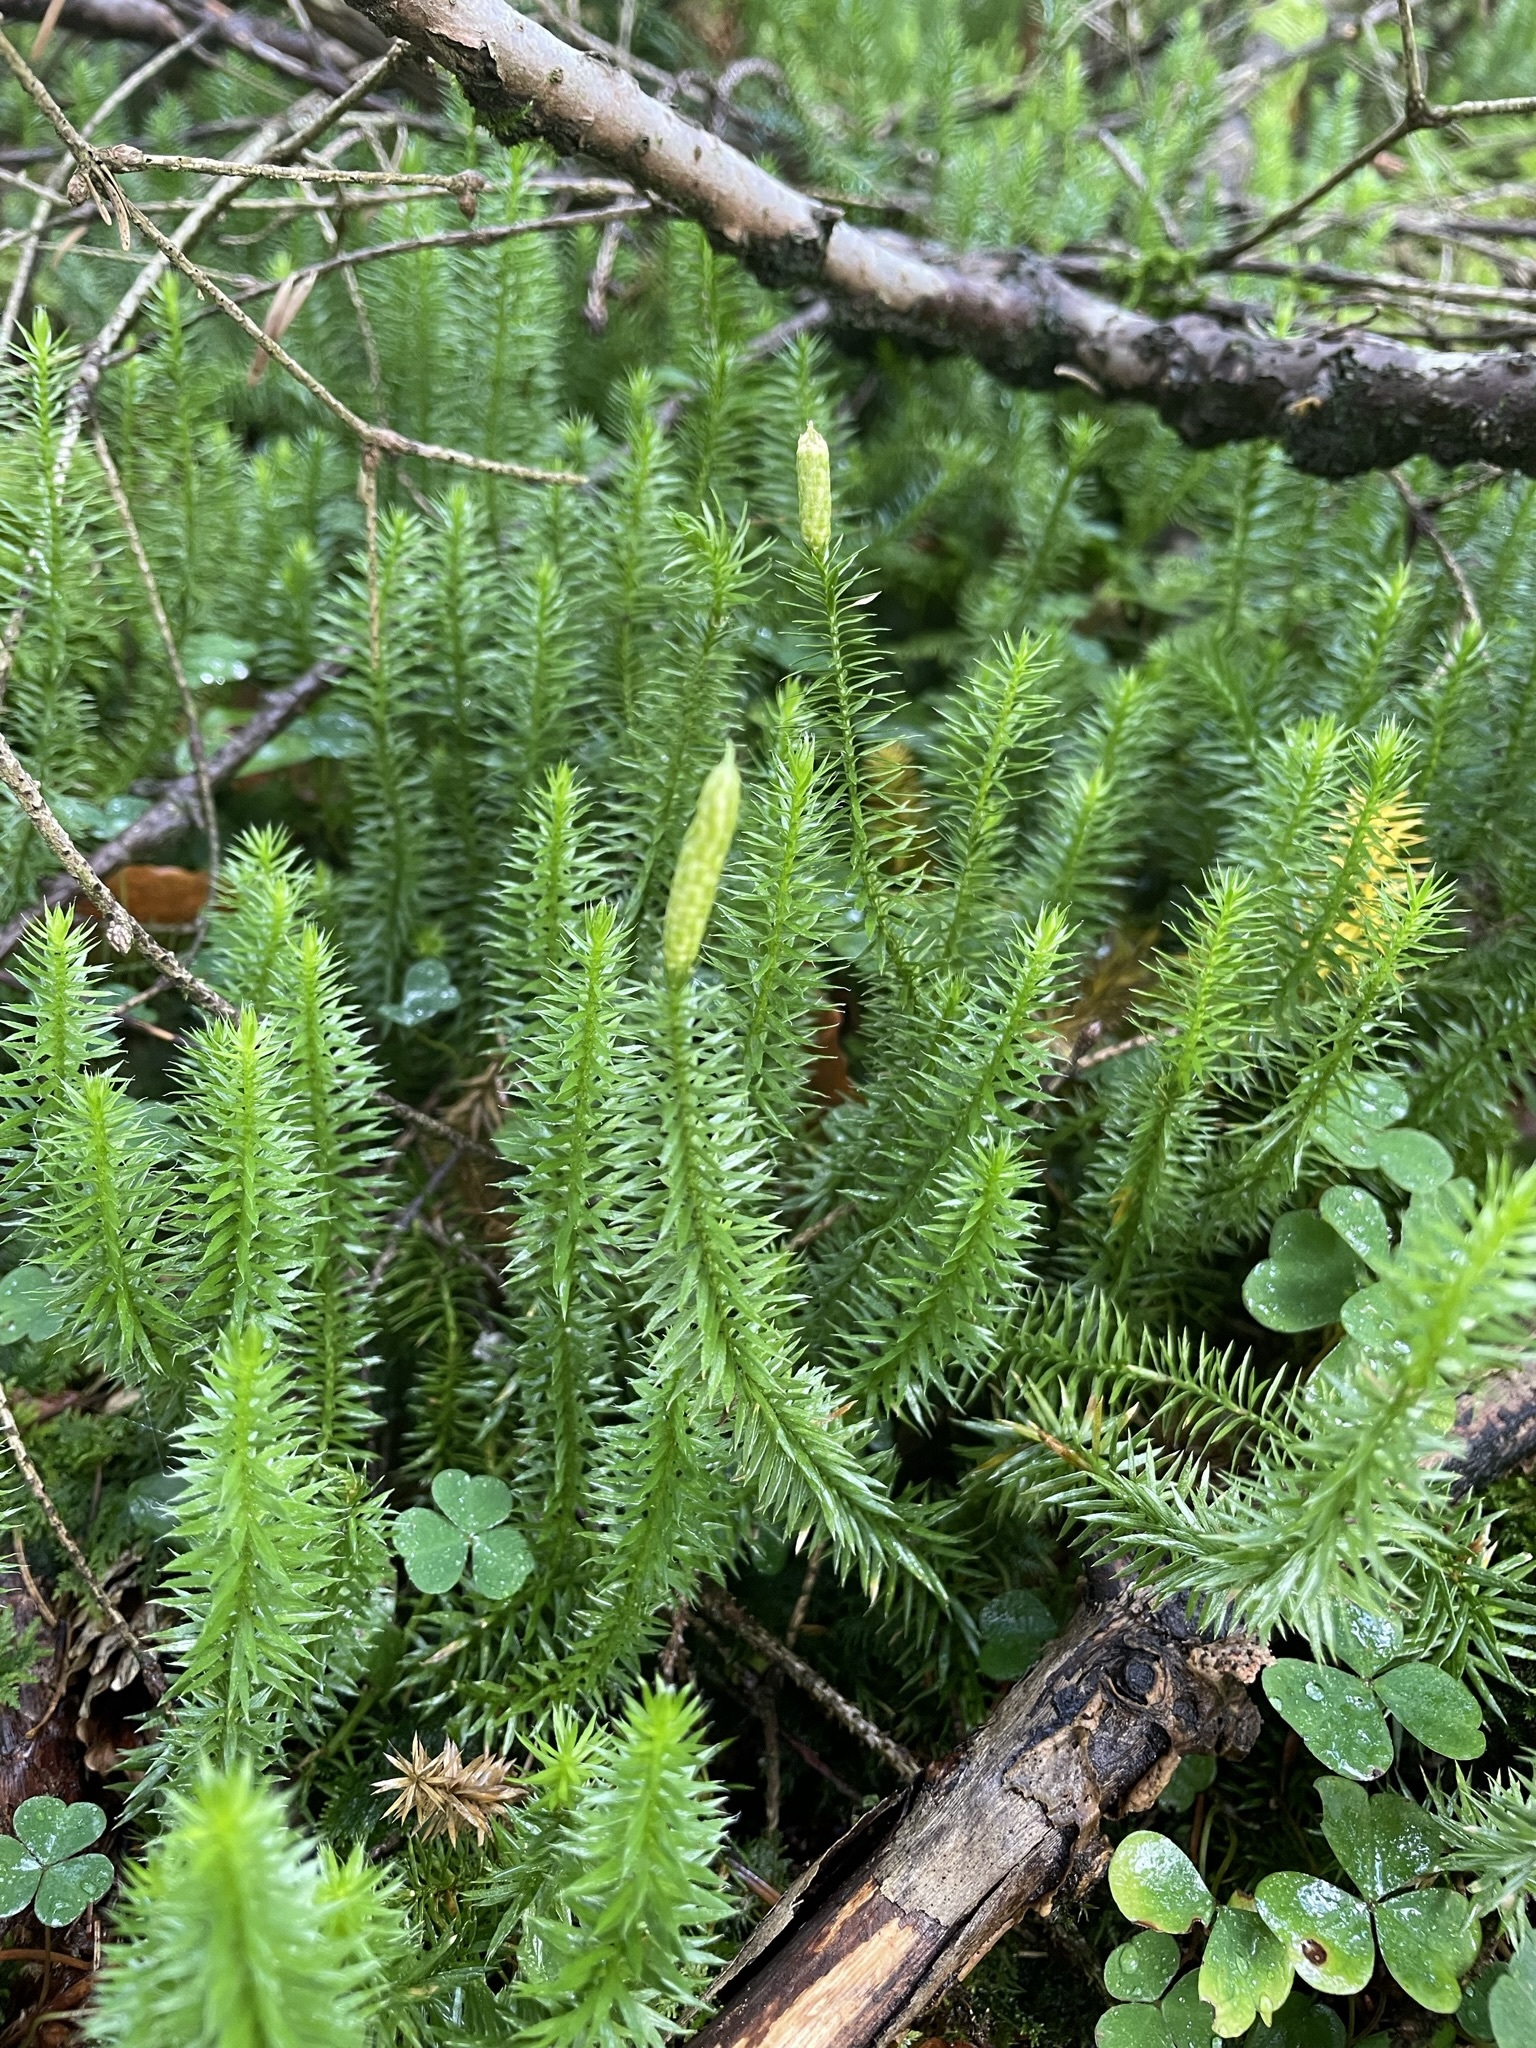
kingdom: Plantae
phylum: Tracheophyta
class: Lycopodiopsida
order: Lycopodiales
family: Lycopodiaceae
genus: Spinulum
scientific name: Spinulum annotinum
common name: Interrupted club-moss
